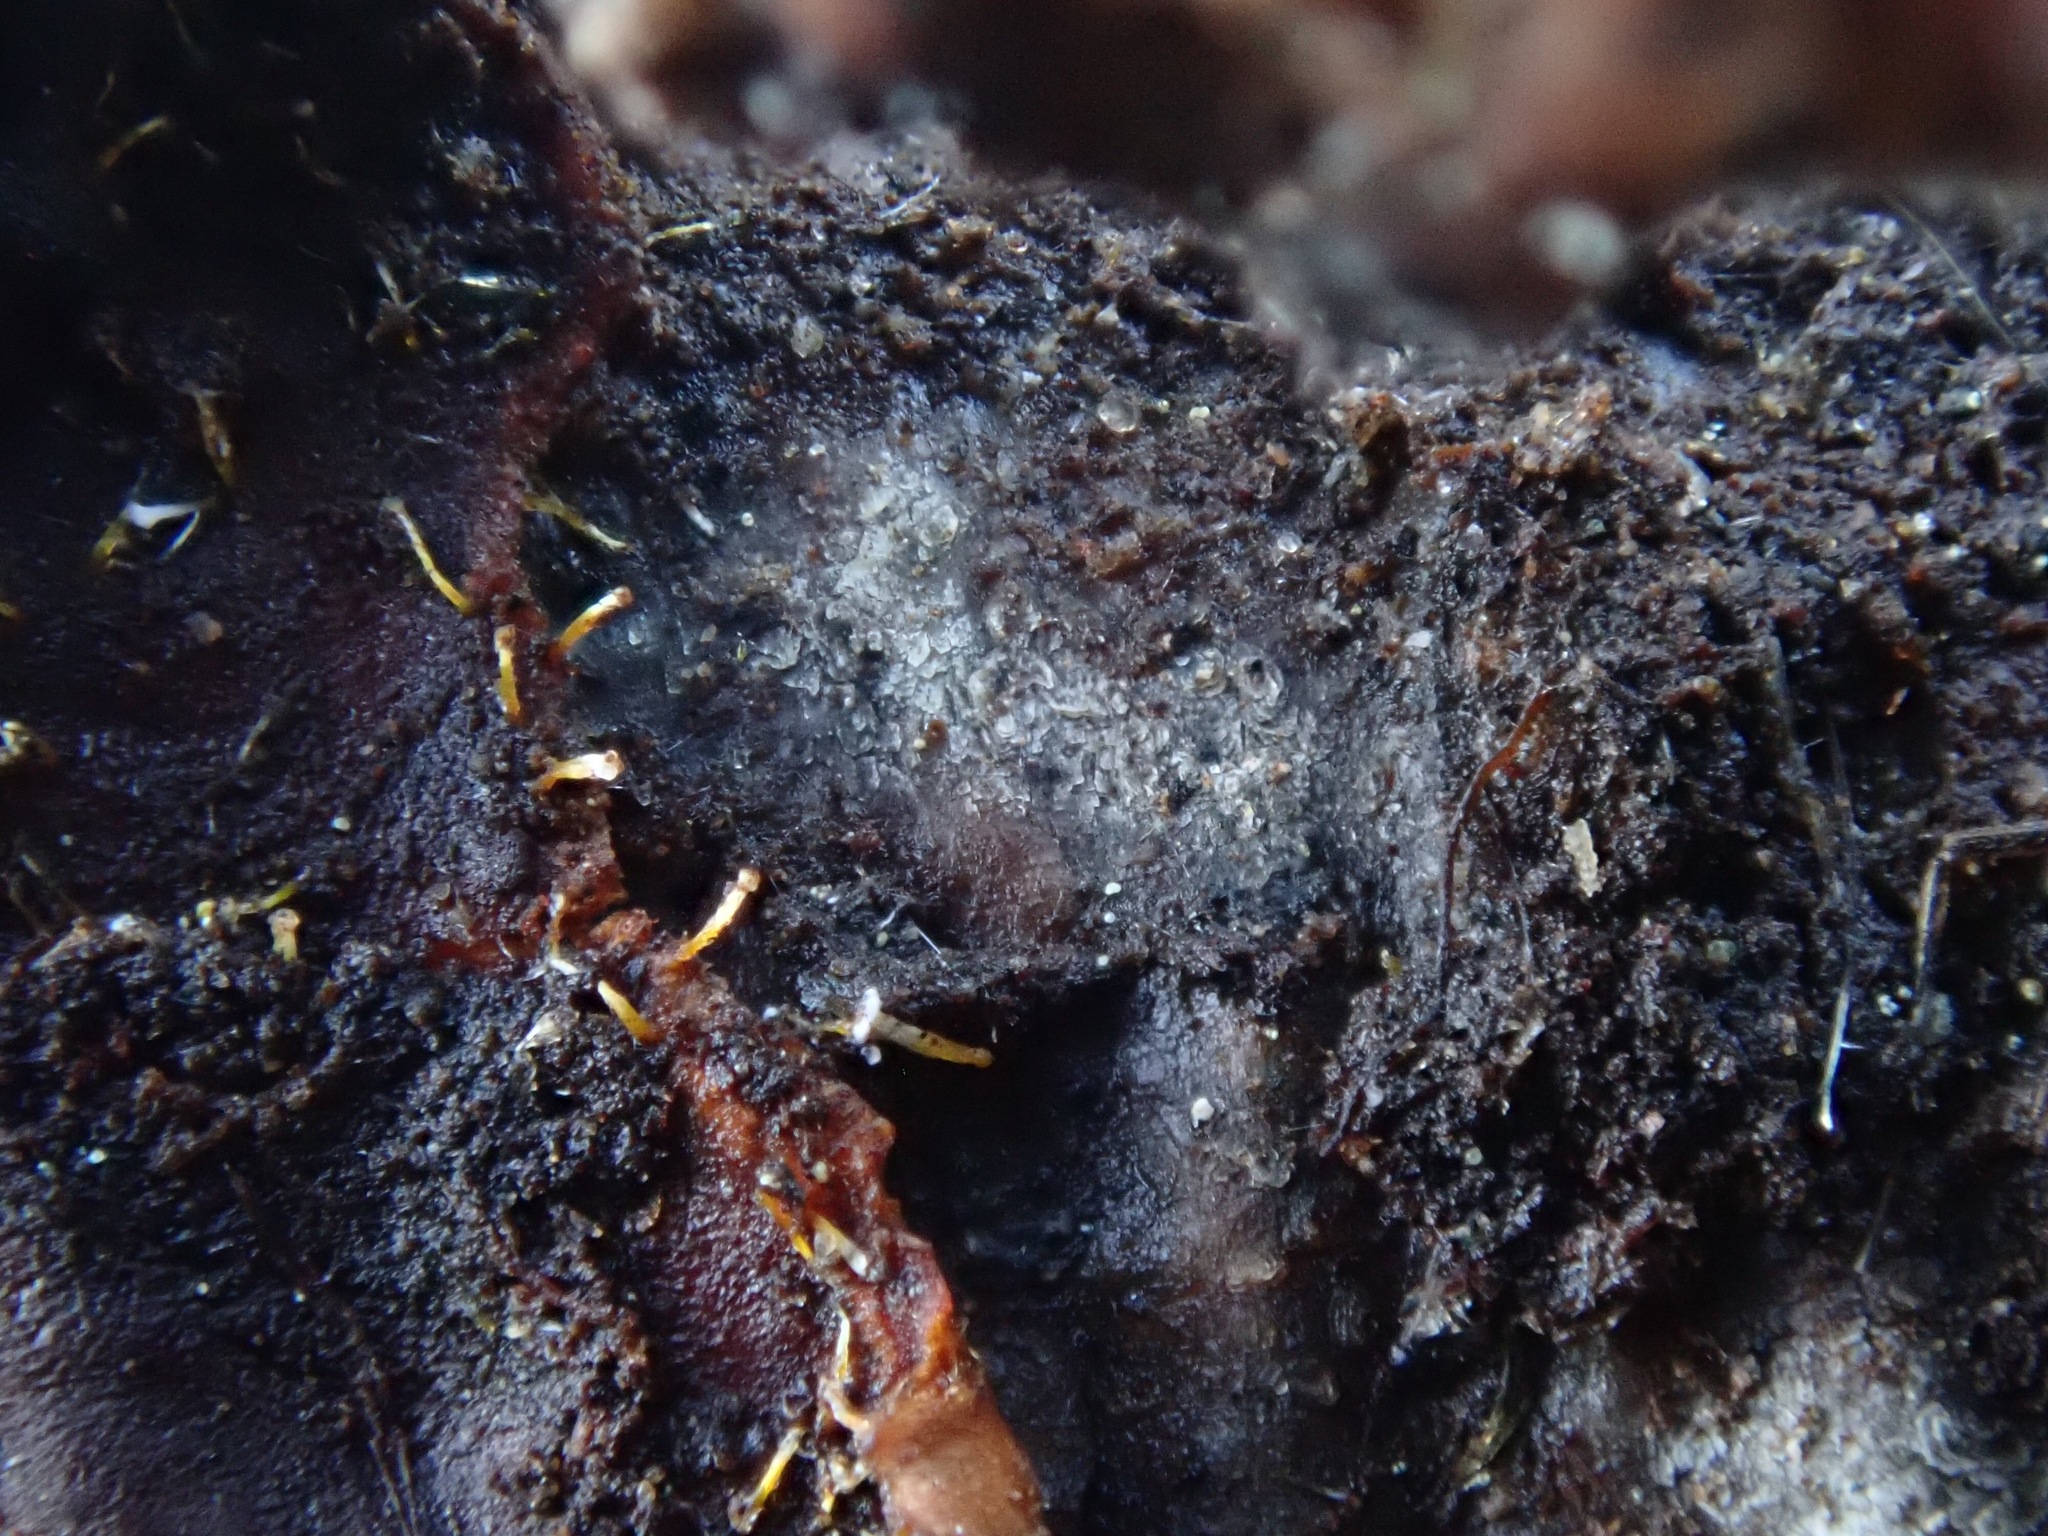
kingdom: Fungi
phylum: Ascomycota
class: Sordariomycetes
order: Hypocreales
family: Hypocreaceae
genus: Sphaerostilbella
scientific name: Sphaerostilbella aurifila
